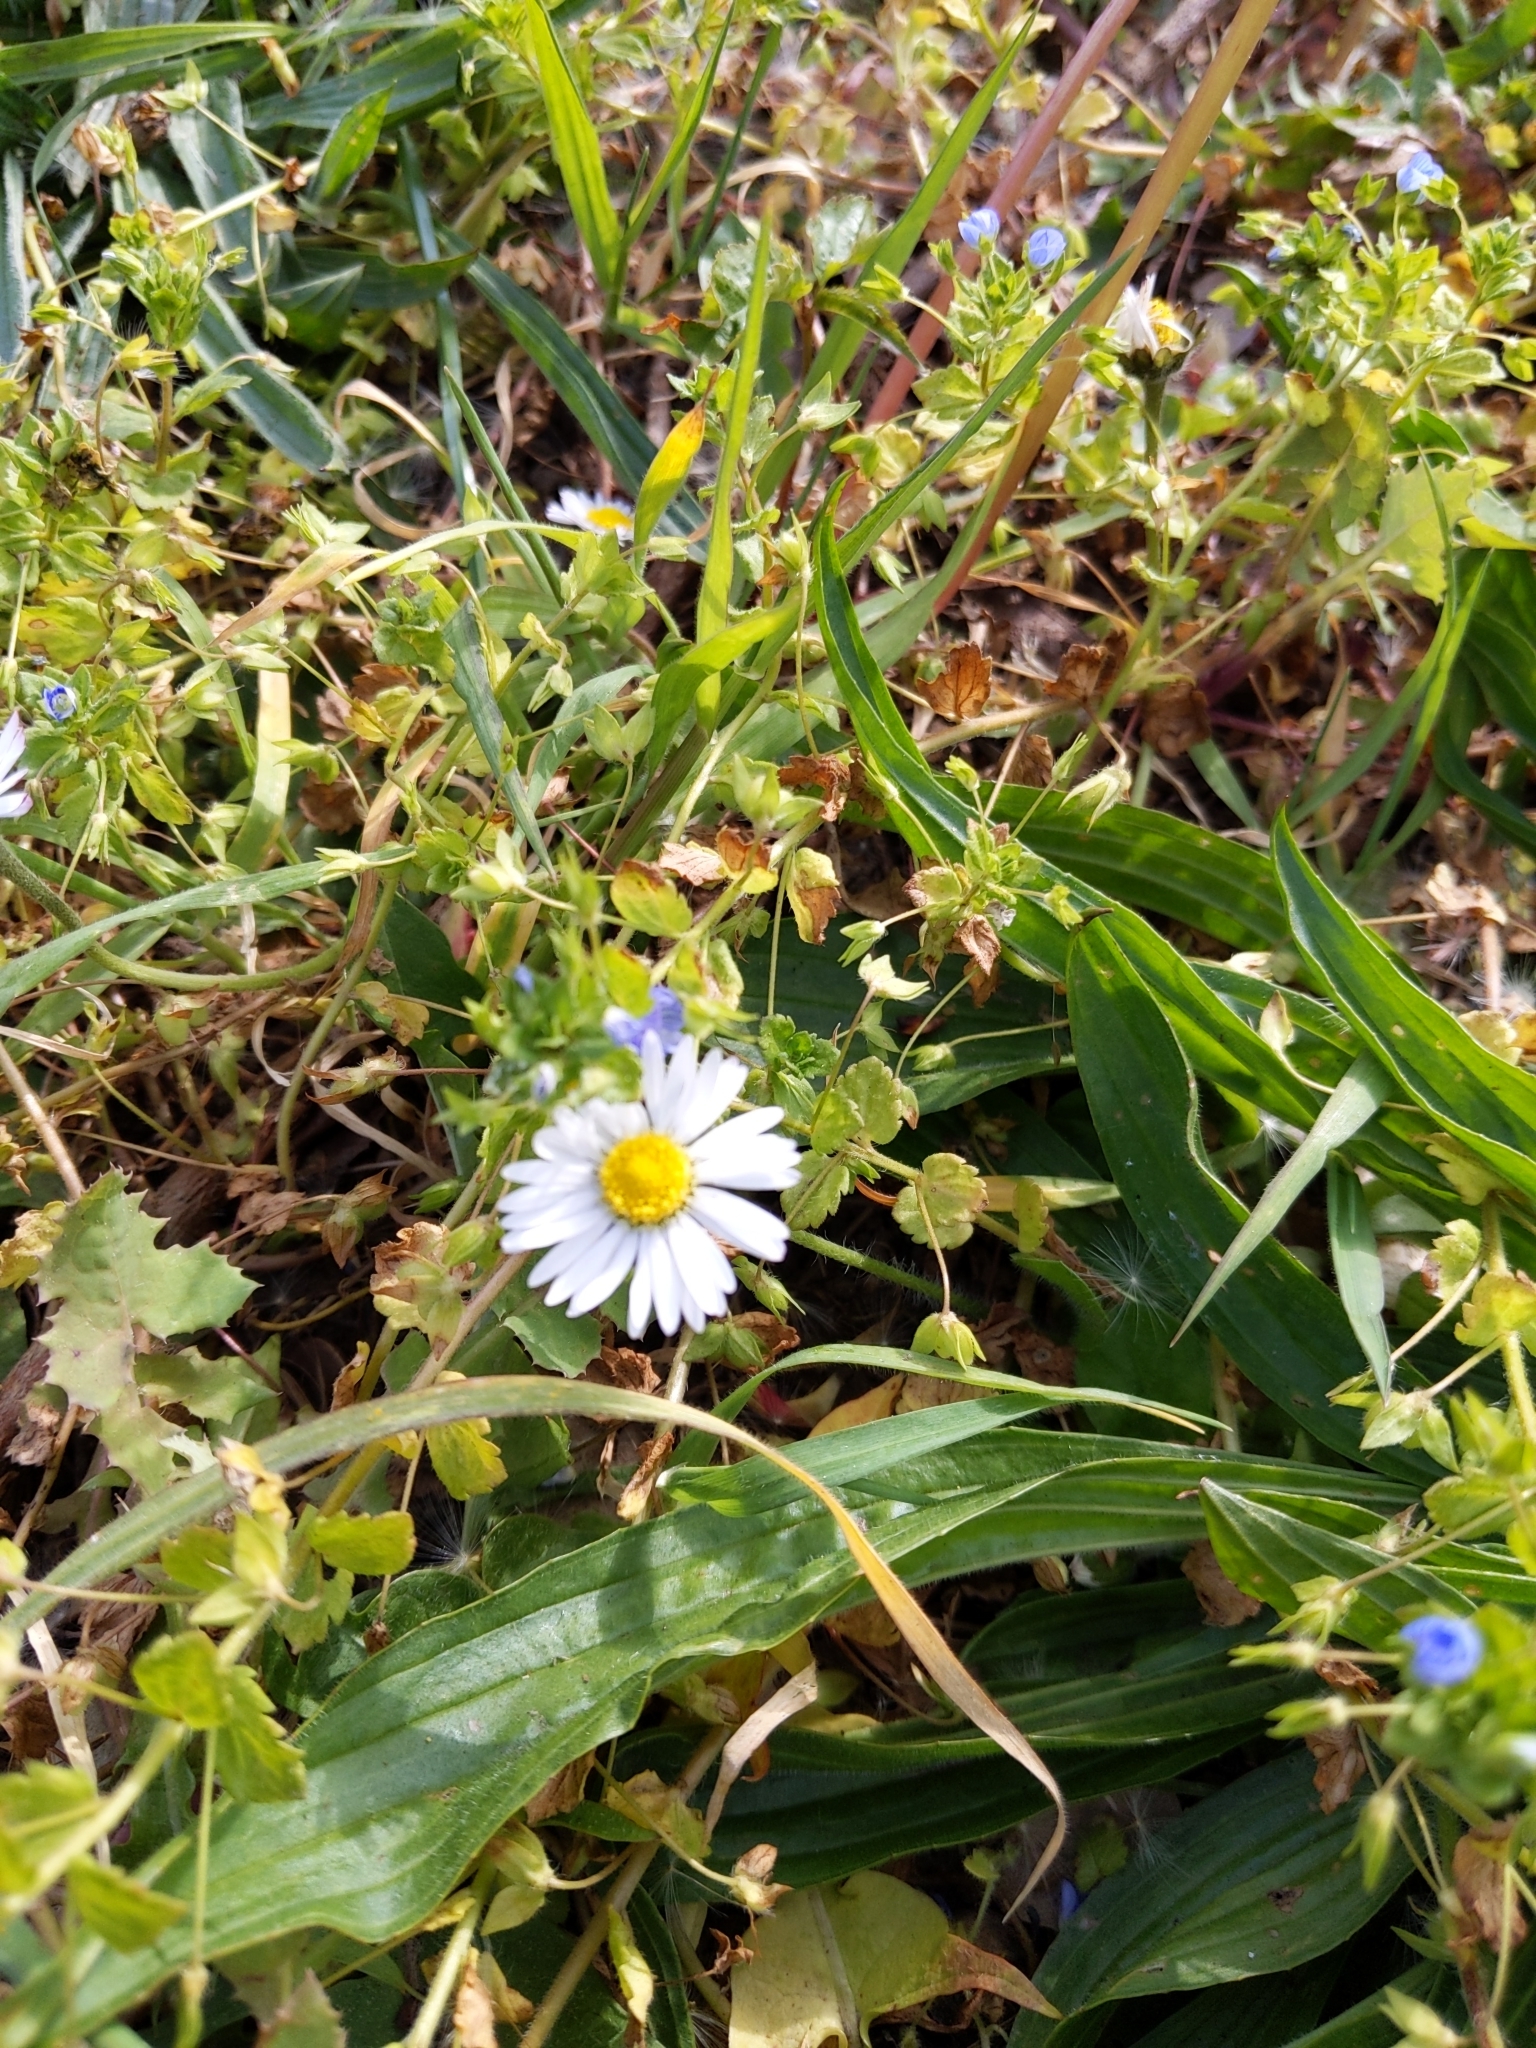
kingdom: Plantae
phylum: Tracheophyta
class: Magnoliopsida
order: Asterales
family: Asteraceae
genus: Bellis
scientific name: Bellis perennis
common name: Lawndaisy
